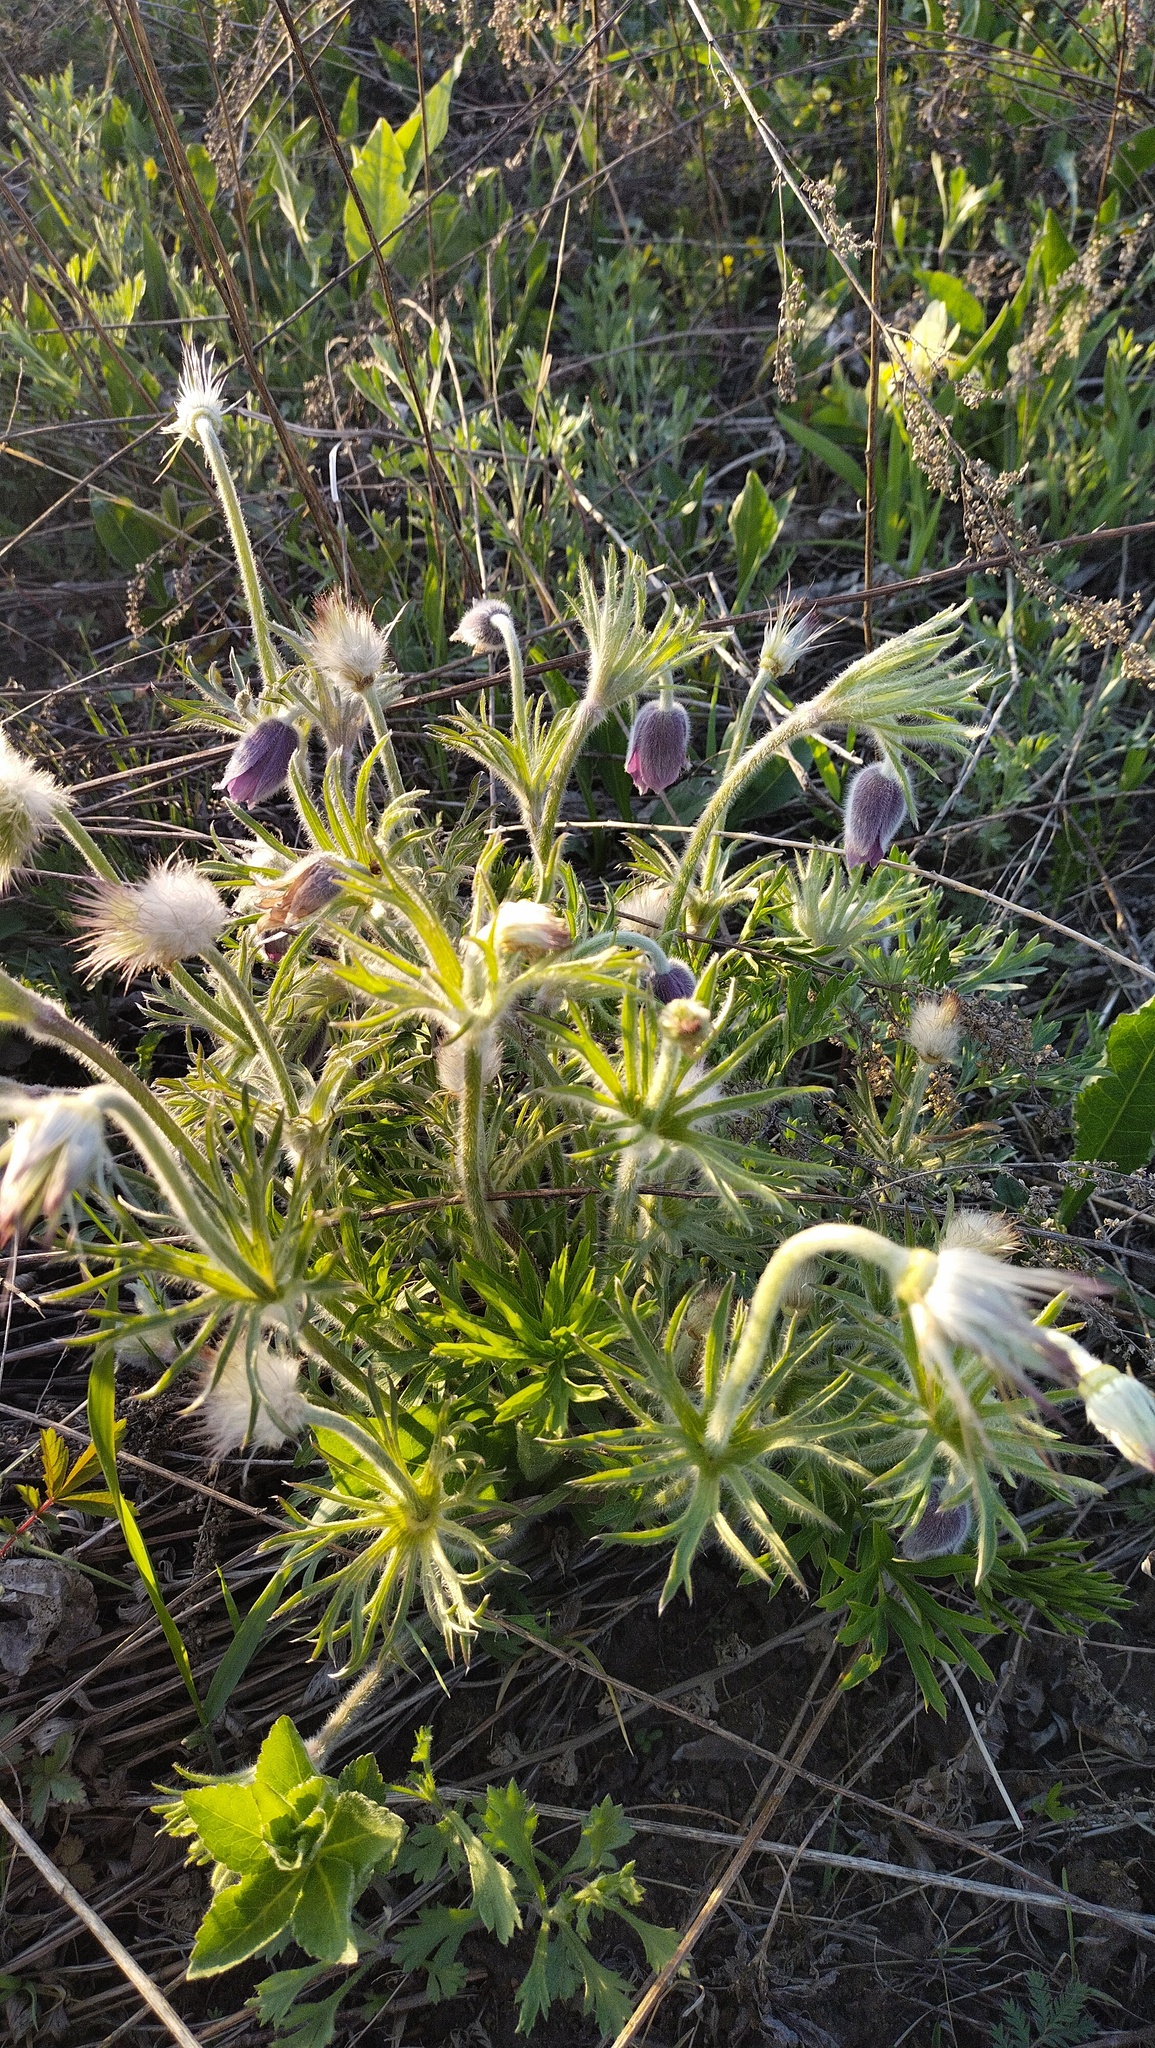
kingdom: Plantae
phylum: Tracheophyta
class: Magnoliopsida
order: Ranunculales
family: Ranunculaceae
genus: Pulsatilla
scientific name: Pulsatilla dahurica
